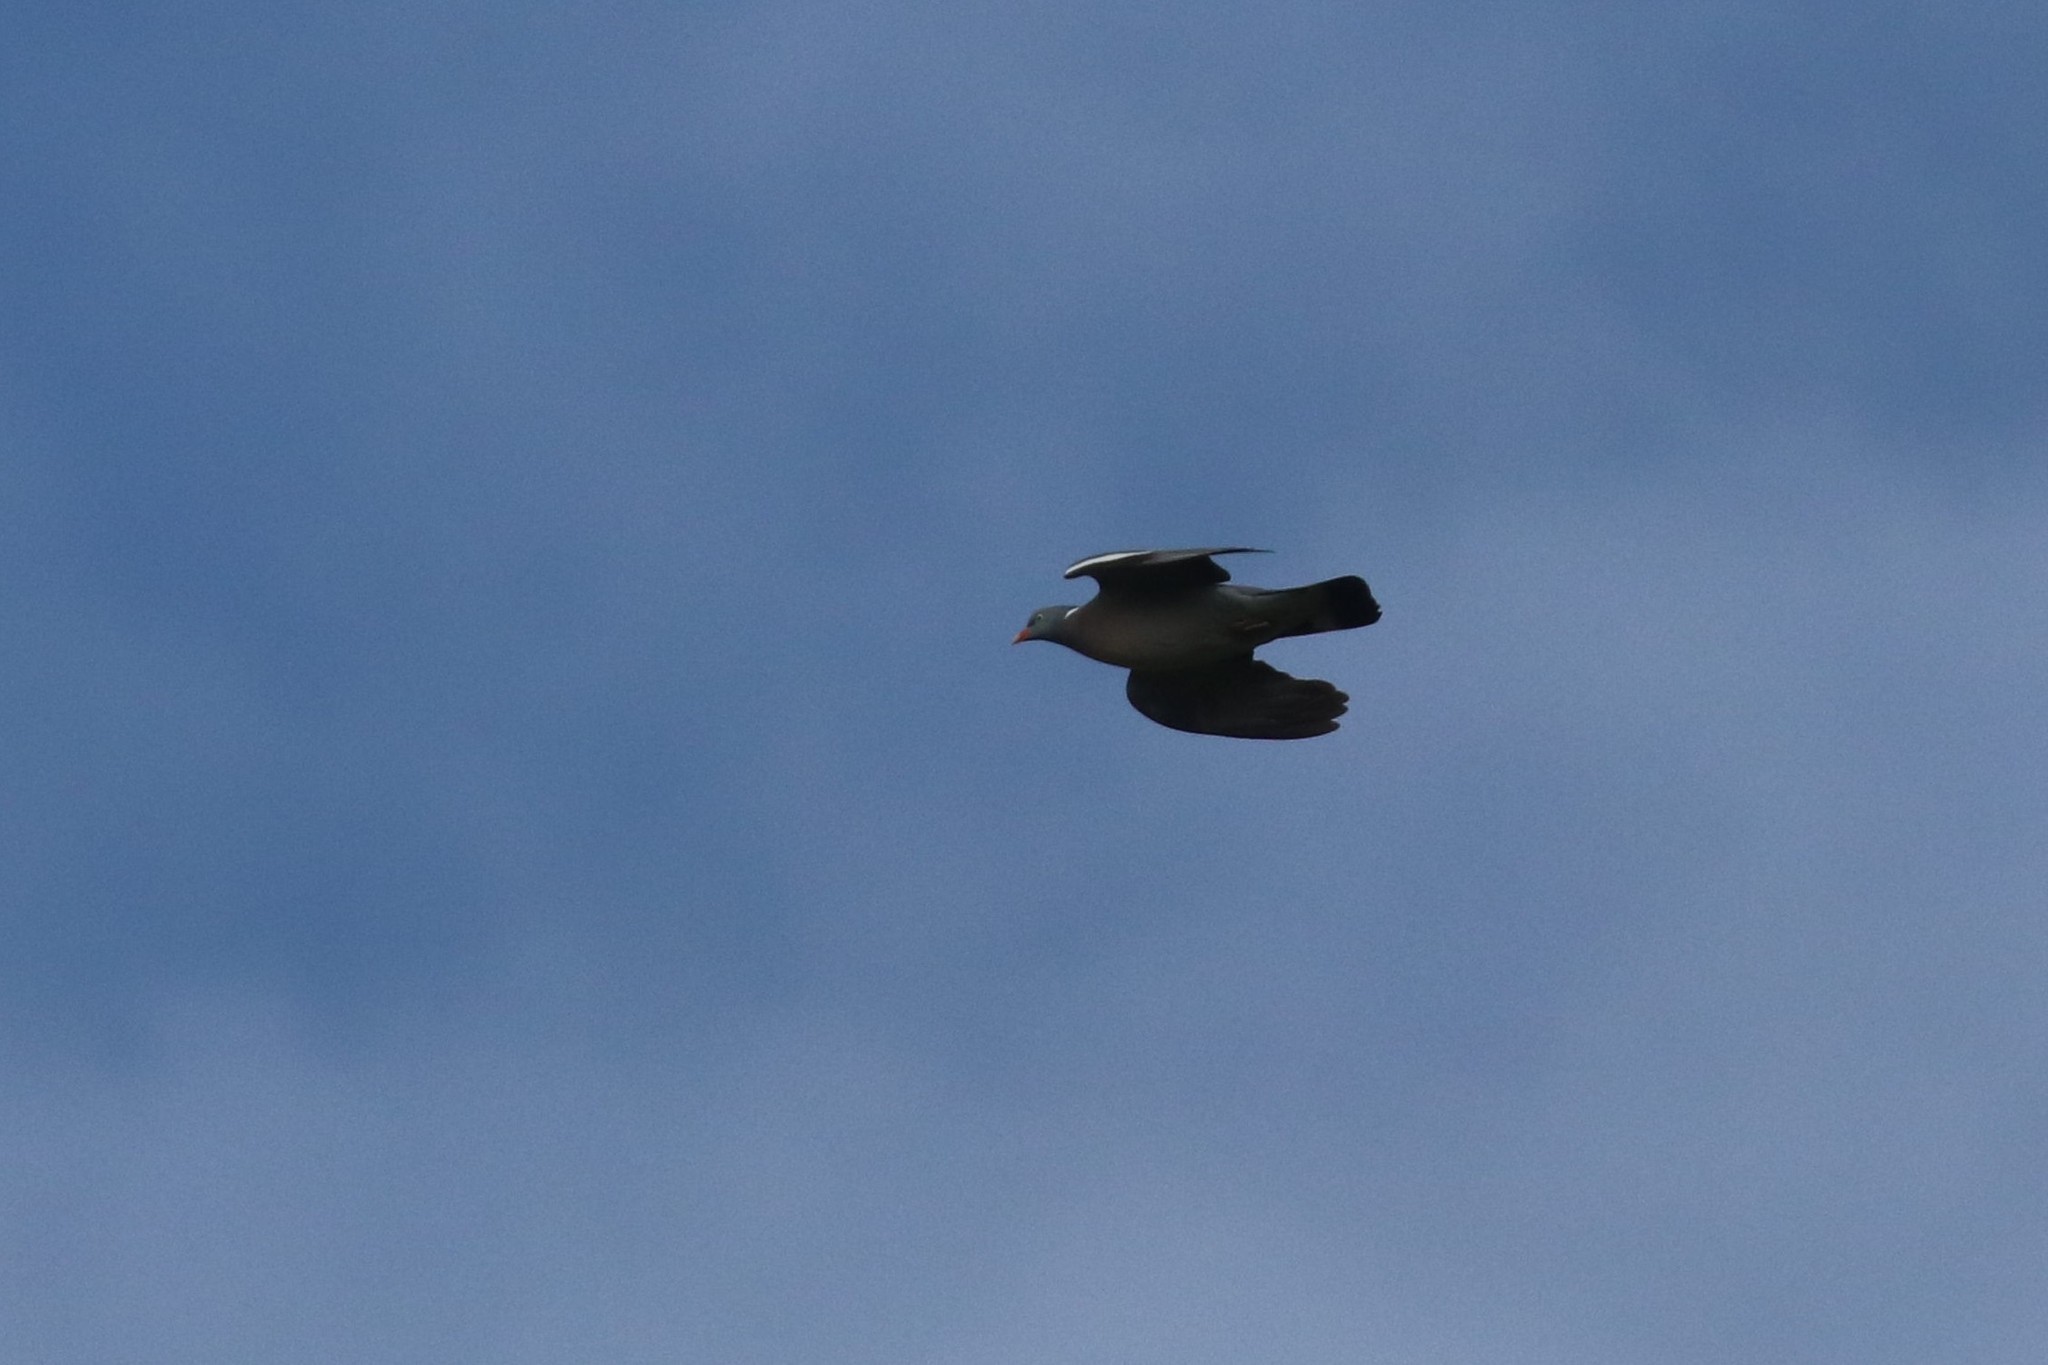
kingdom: Animalia
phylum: Chordata
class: Aves
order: Columbiformes
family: Columbidae
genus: Columba
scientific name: Columba palumbus
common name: Common wood pigeon
